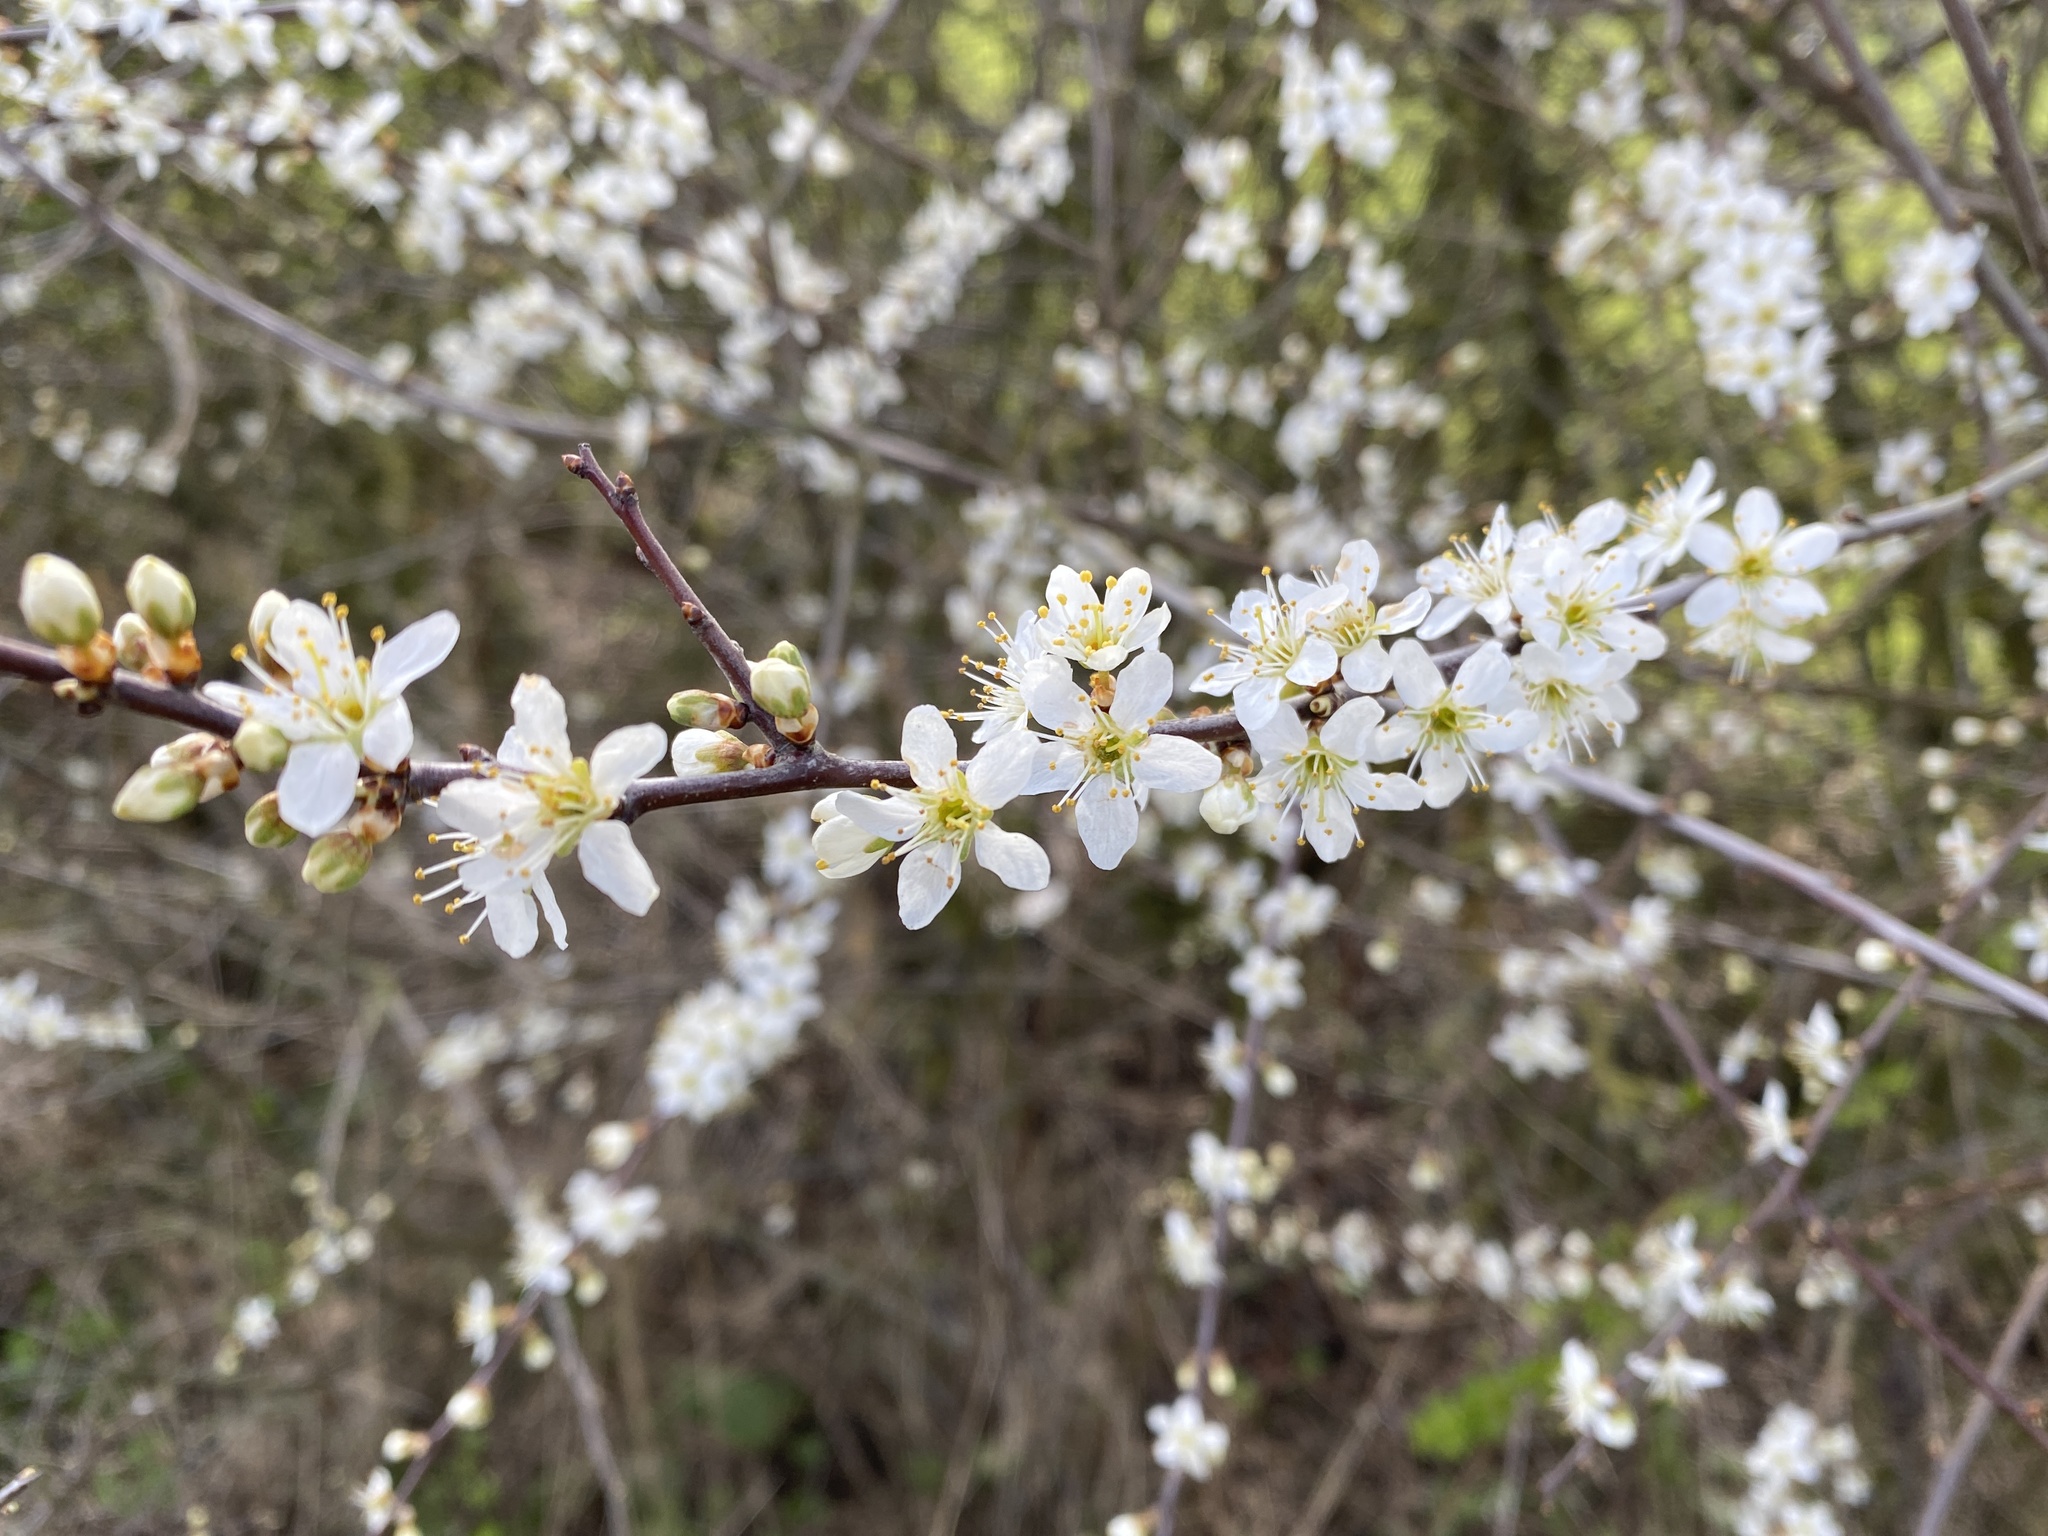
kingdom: Plantae
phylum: Tracheophyta
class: Magnoliopsida
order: Rosales
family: Rosaceae
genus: Prunus
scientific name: Prunus spinosa
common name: Blackthorn
